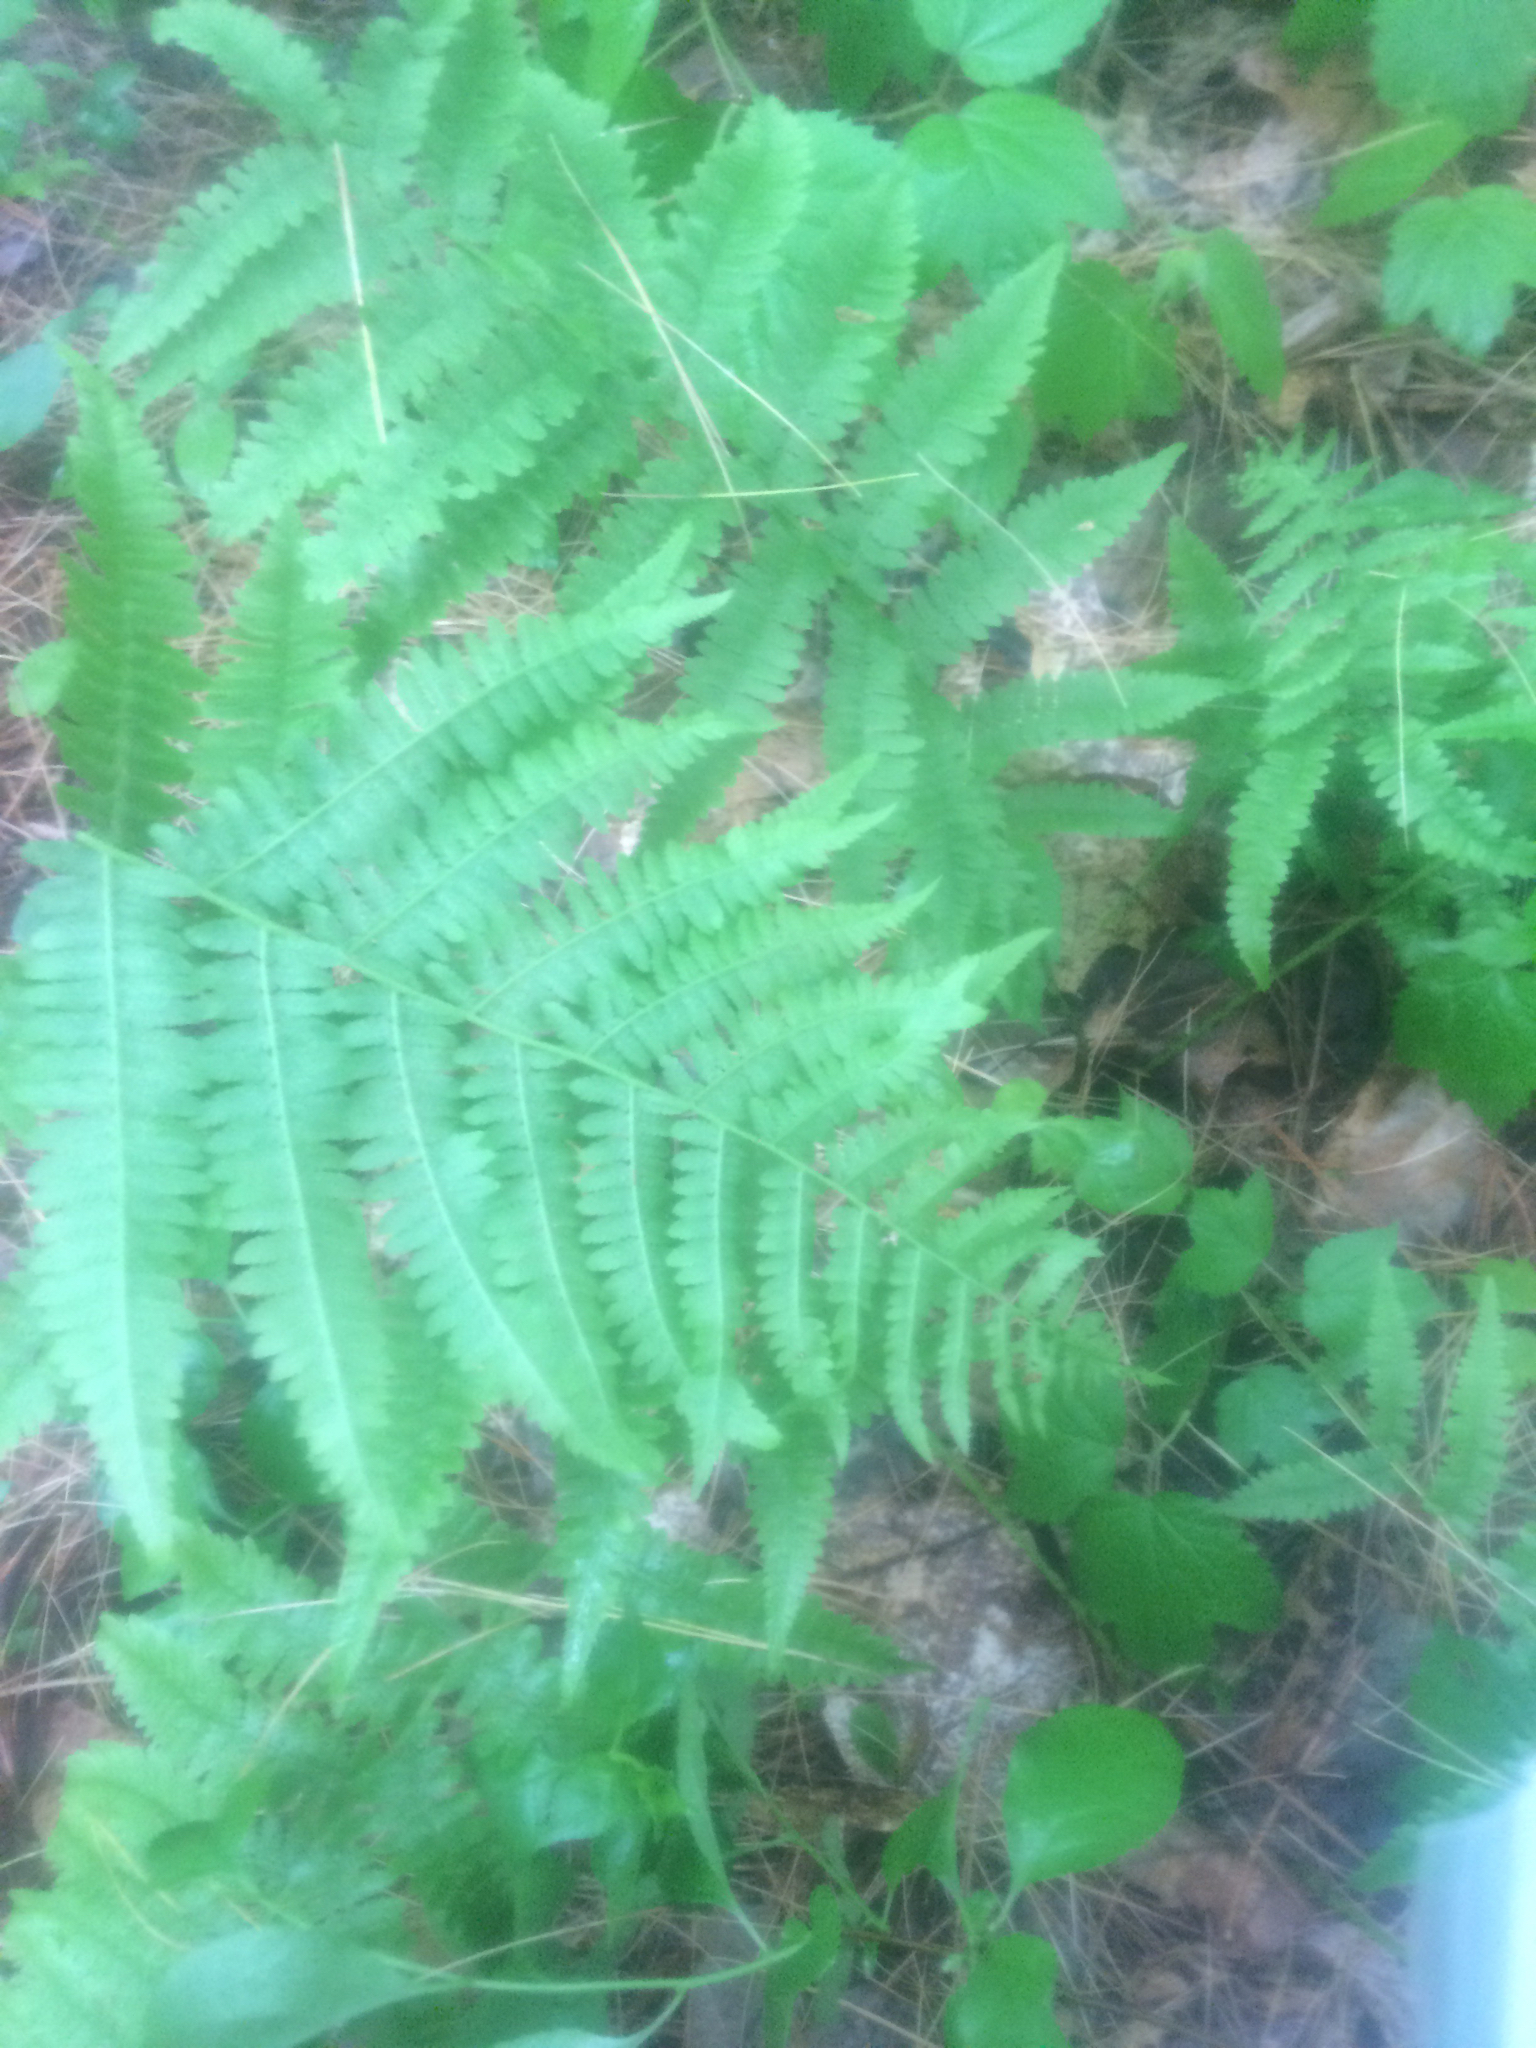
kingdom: Plantae
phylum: Tracheophyta
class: Polypodiopsida
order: Polypodiales
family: Athyriaceae
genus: Athyrium
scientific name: Athyrium angustum
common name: Northern lady fern
